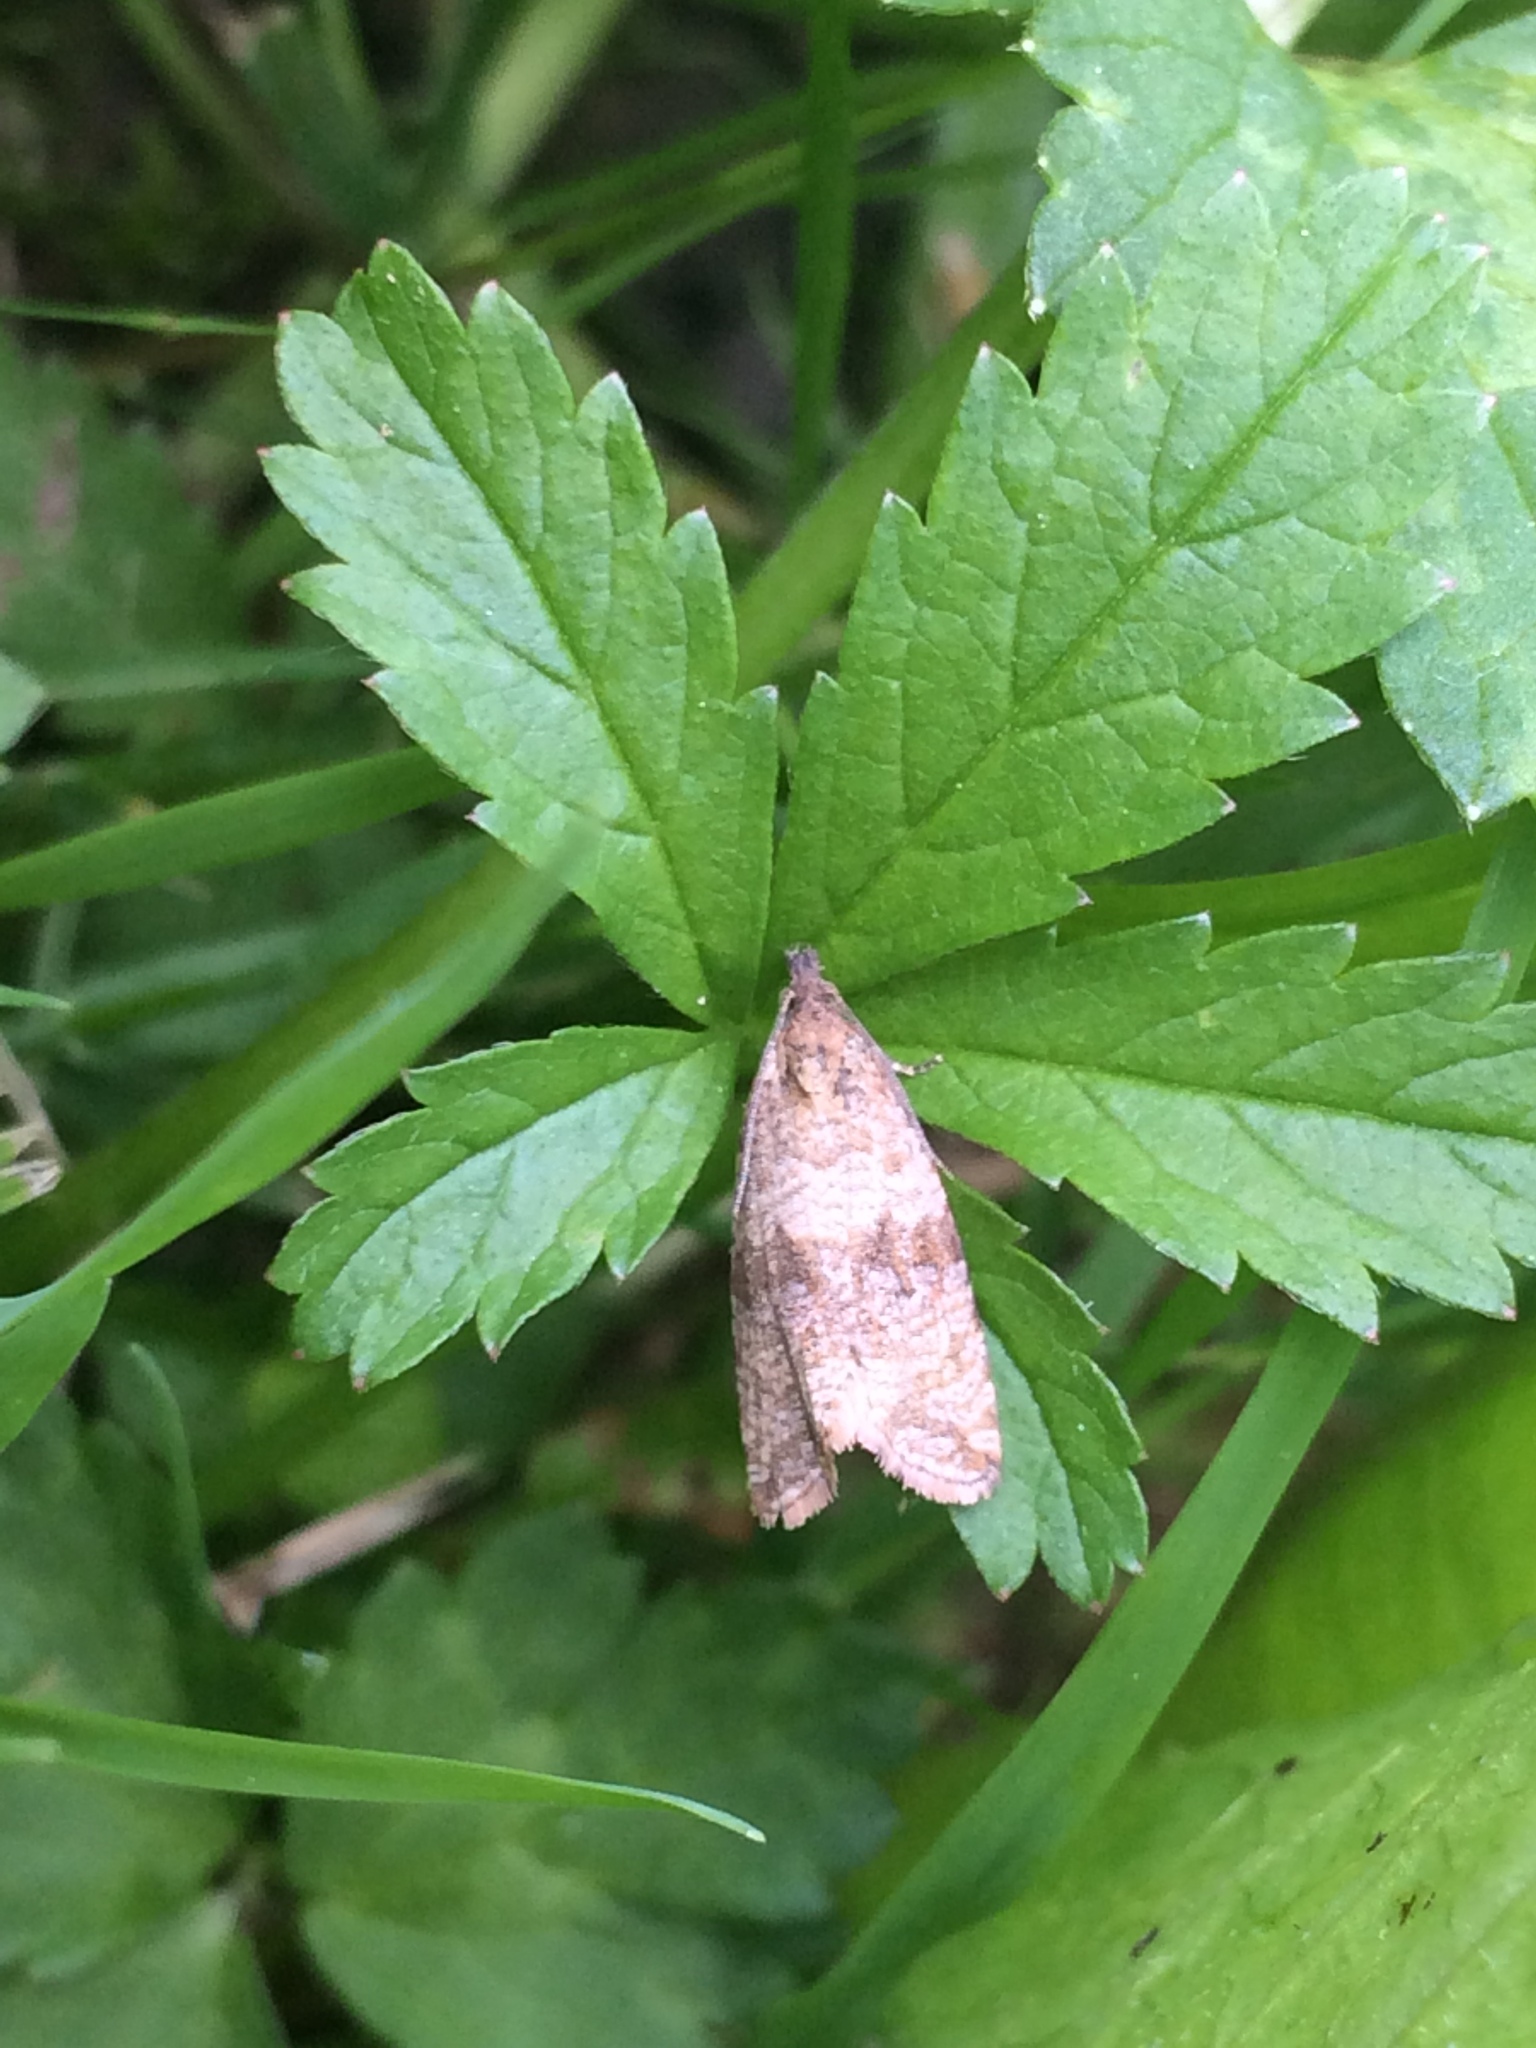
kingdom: Animalia
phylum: Arthropoda
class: Insecta
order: Lepidoptera
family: Tortricidae
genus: Celypha
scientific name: Celypha striana
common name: Barred marble
